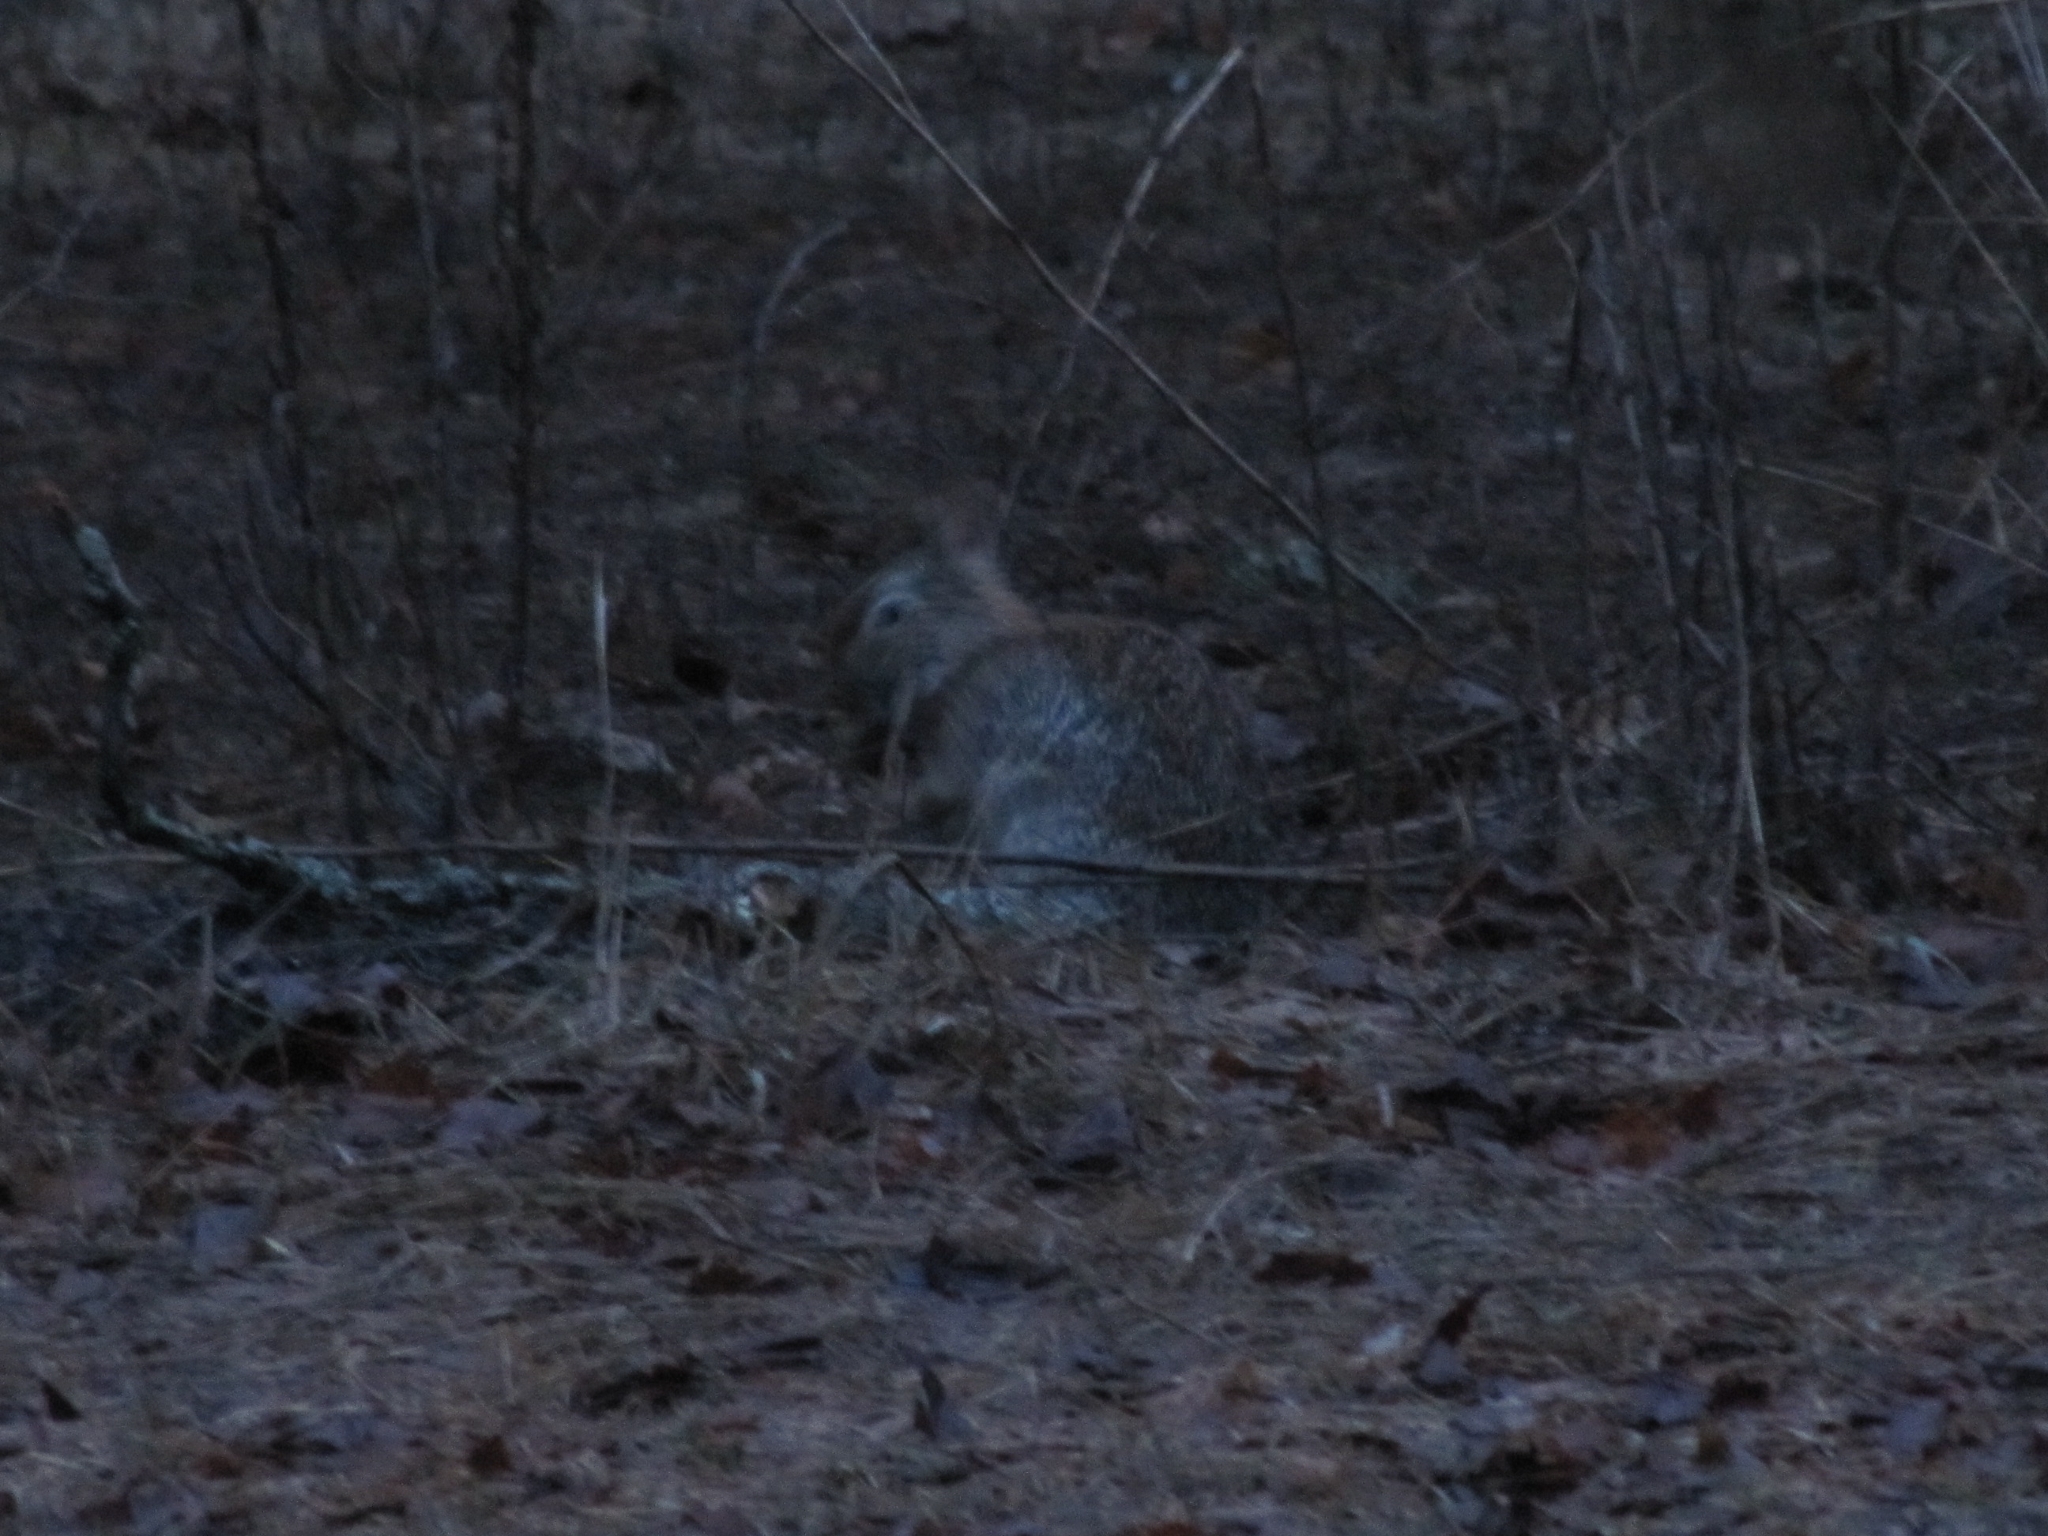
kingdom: Animalia
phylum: Chordata
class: Mammalia
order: Lagomorpha
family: Leporidae
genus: Sylvilagus
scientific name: Sylvilagus floridanus
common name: Eastern cottontail
